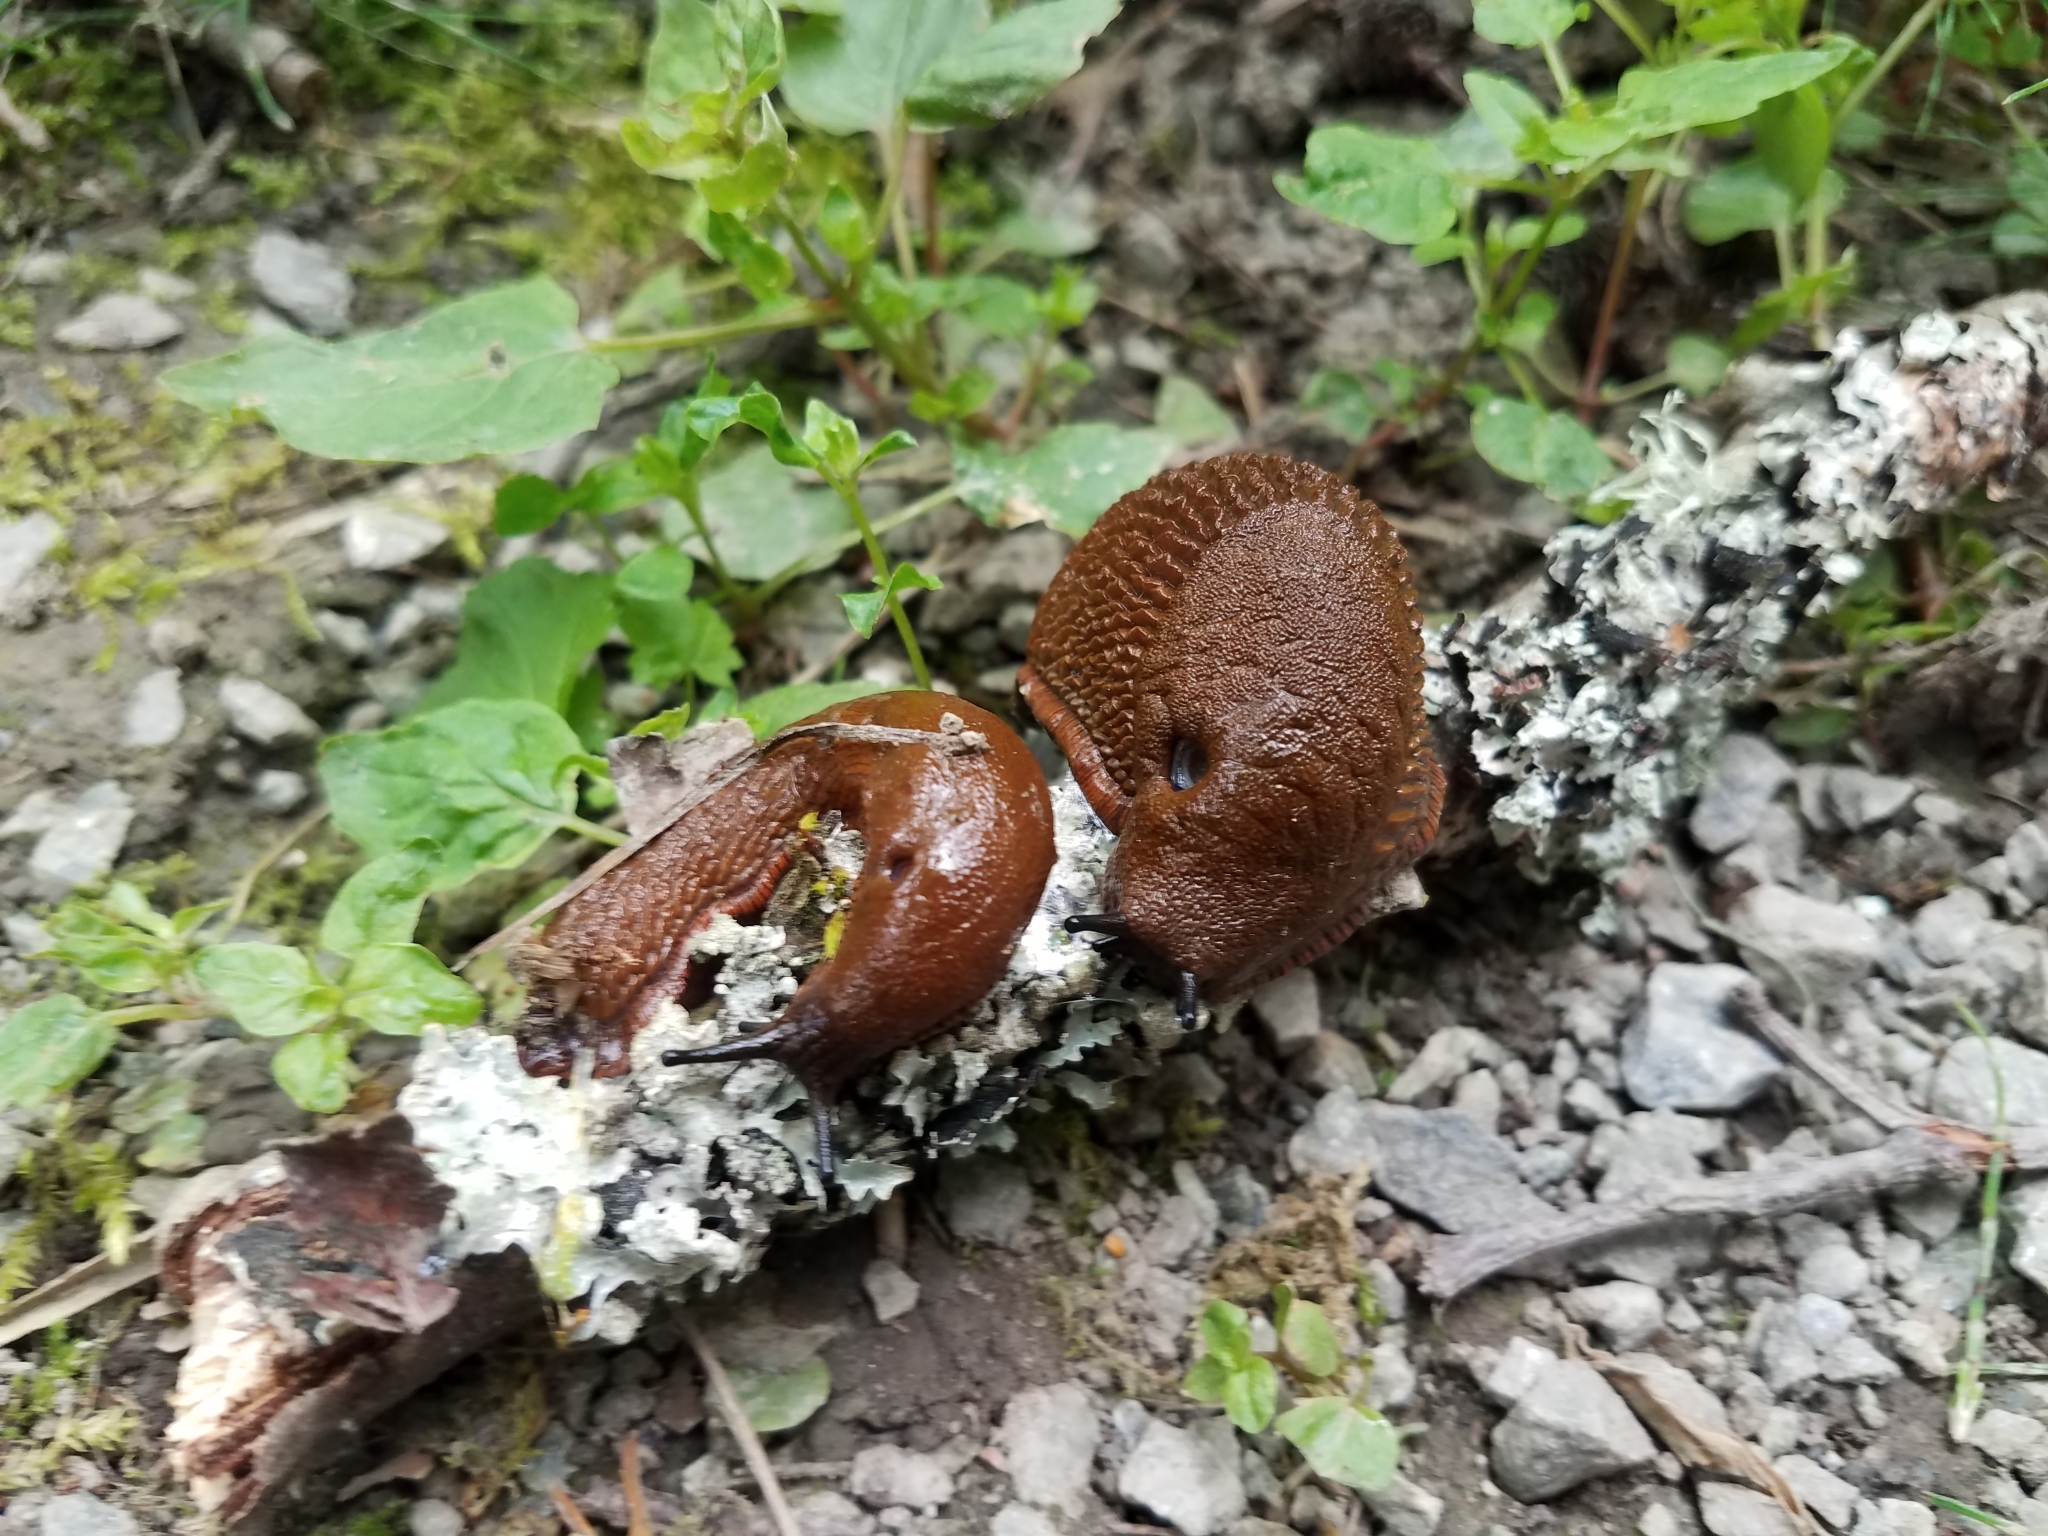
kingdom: Animalia
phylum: Mollusca
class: Gastropoda
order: Stylommatophora
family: Arionidae
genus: Arion
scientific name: Arion
